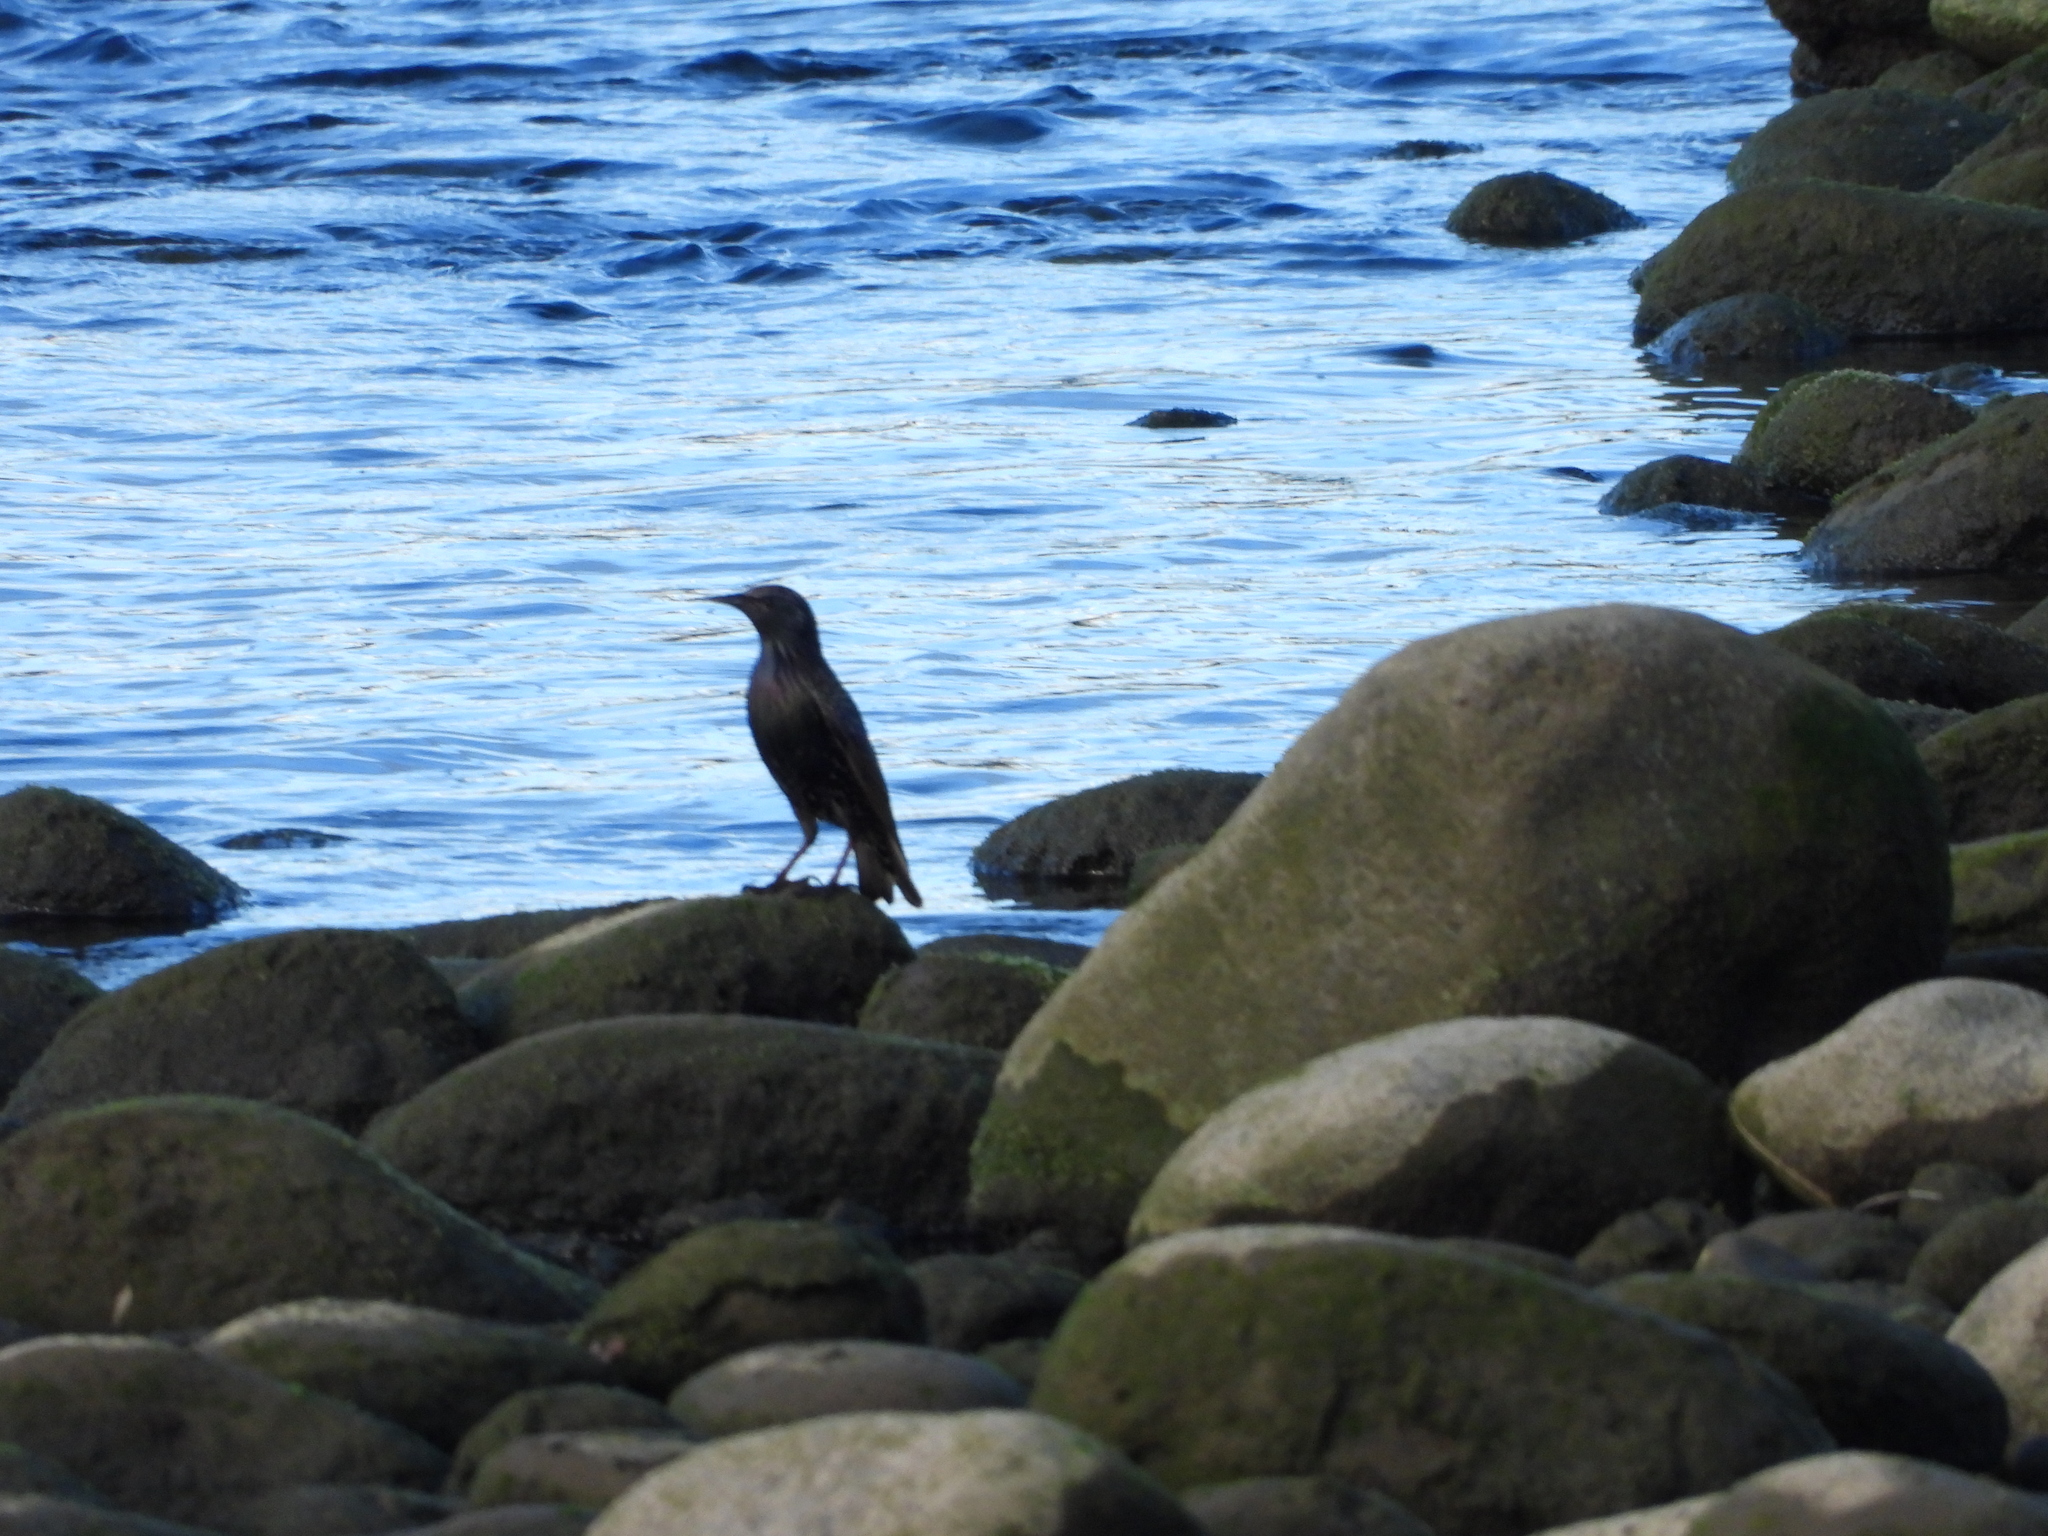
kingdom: Animalia
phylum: Chordata
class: Aves
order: Passeriformes
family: Sturnidae
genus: Sturnus
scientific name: Sturnus vulgaris
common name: Common starling
